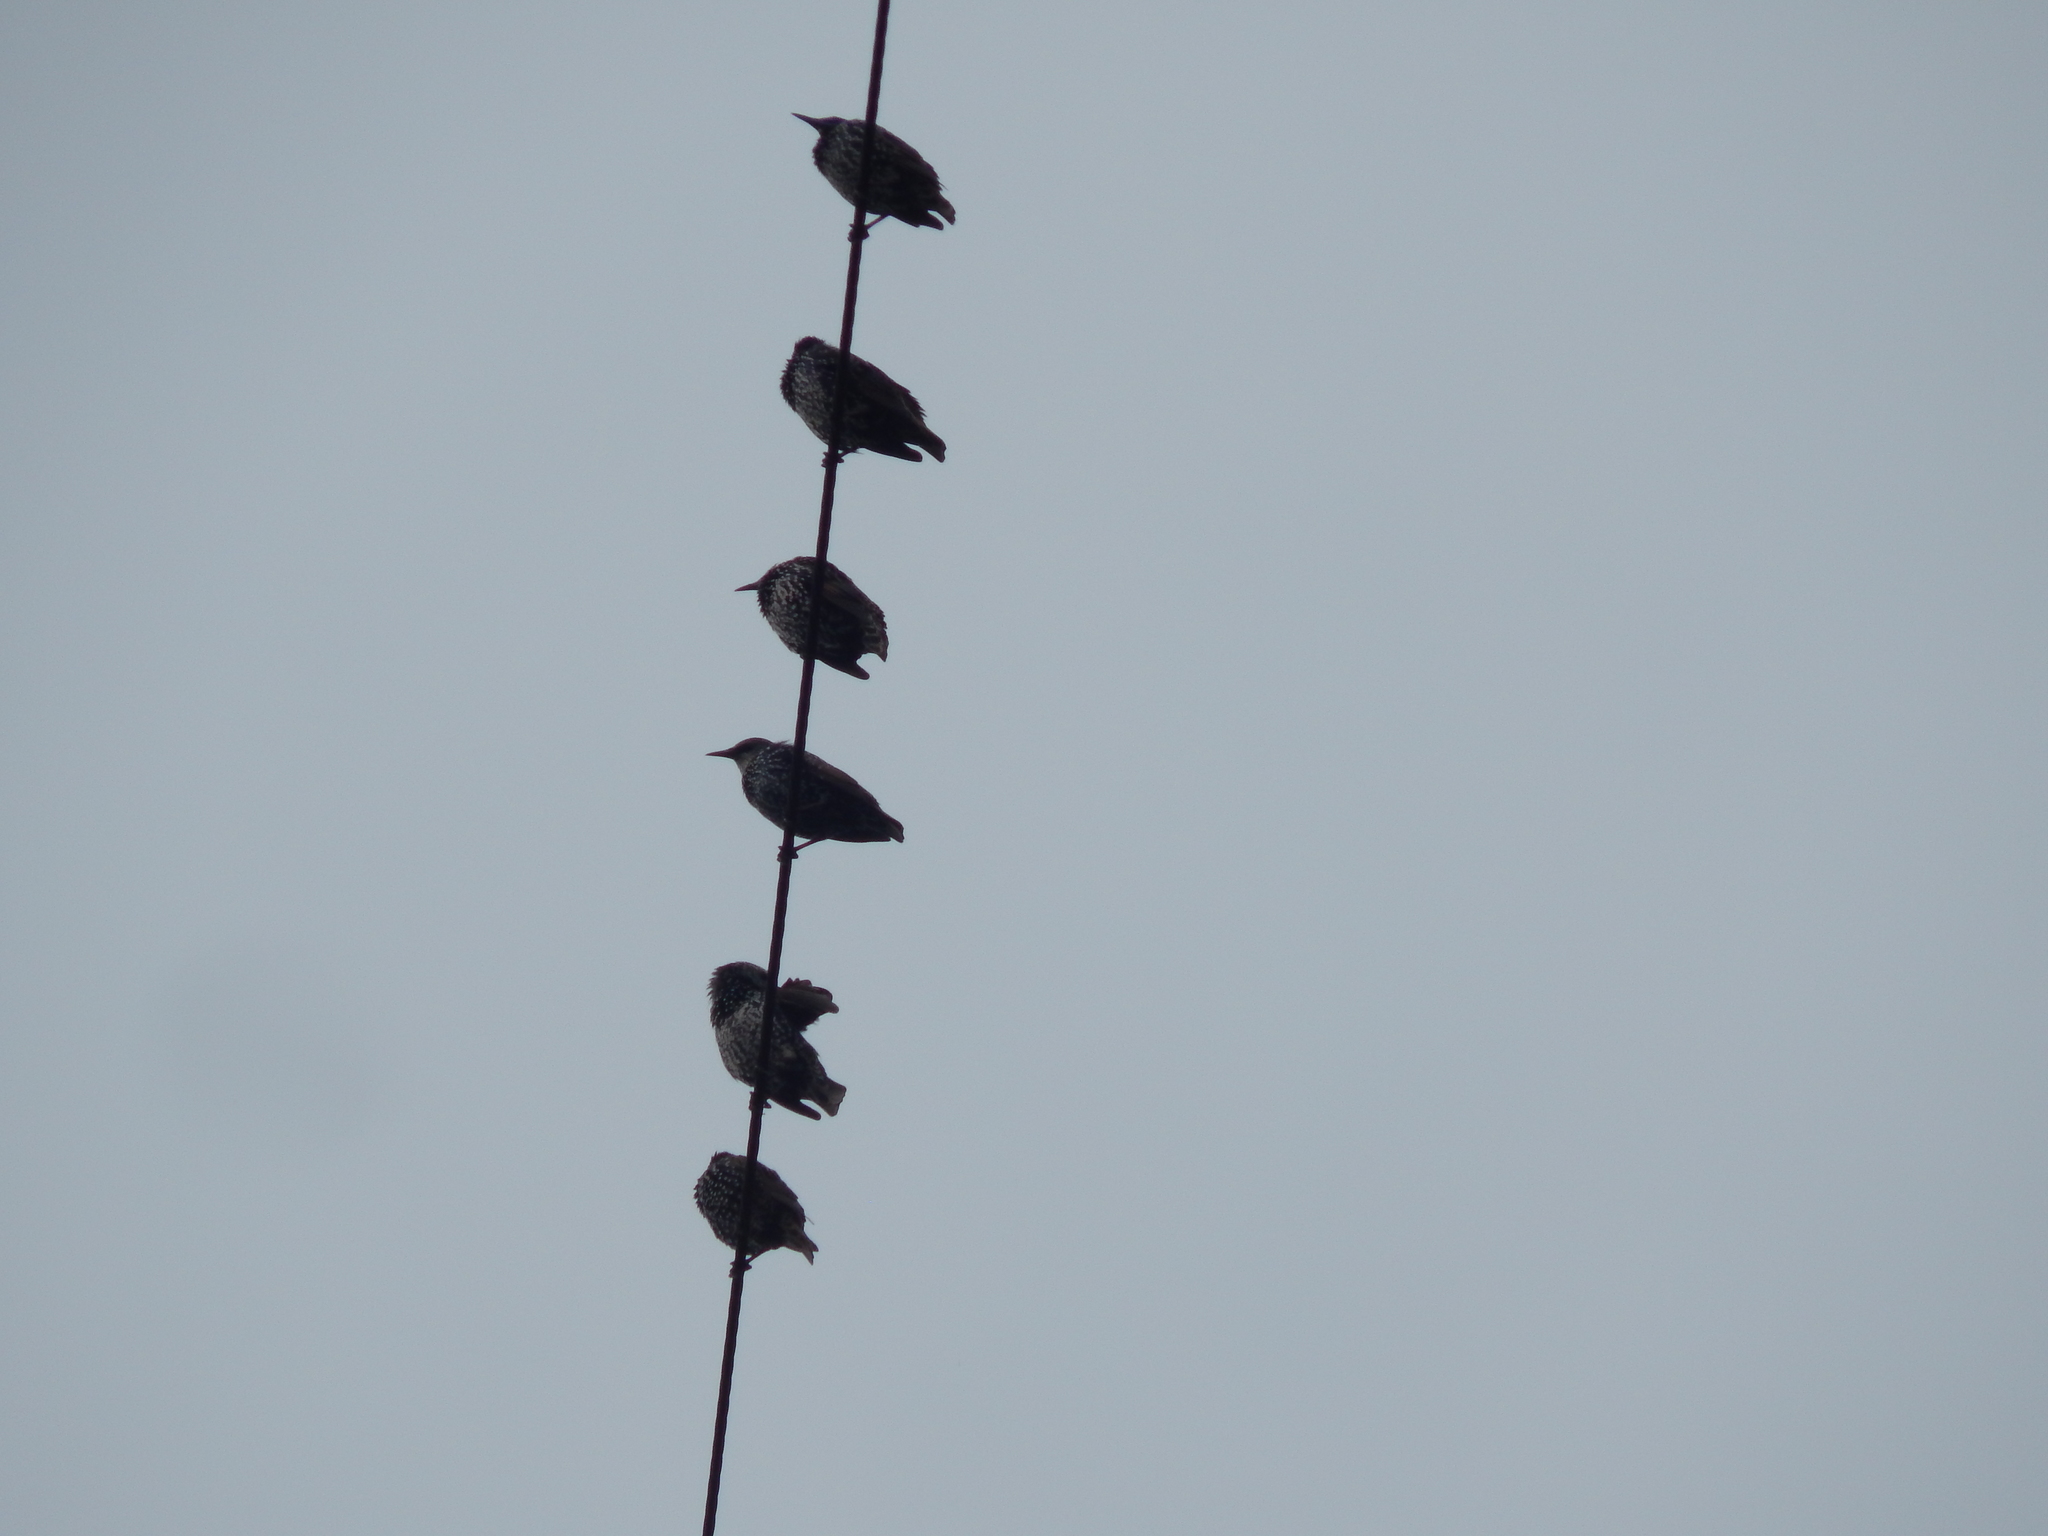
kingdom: Animalia
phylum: Chordata
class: Aves
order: Passeriformes
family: Sturnidae
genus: Sturnus
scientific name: Sturnus vulgaris
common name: Common starling
